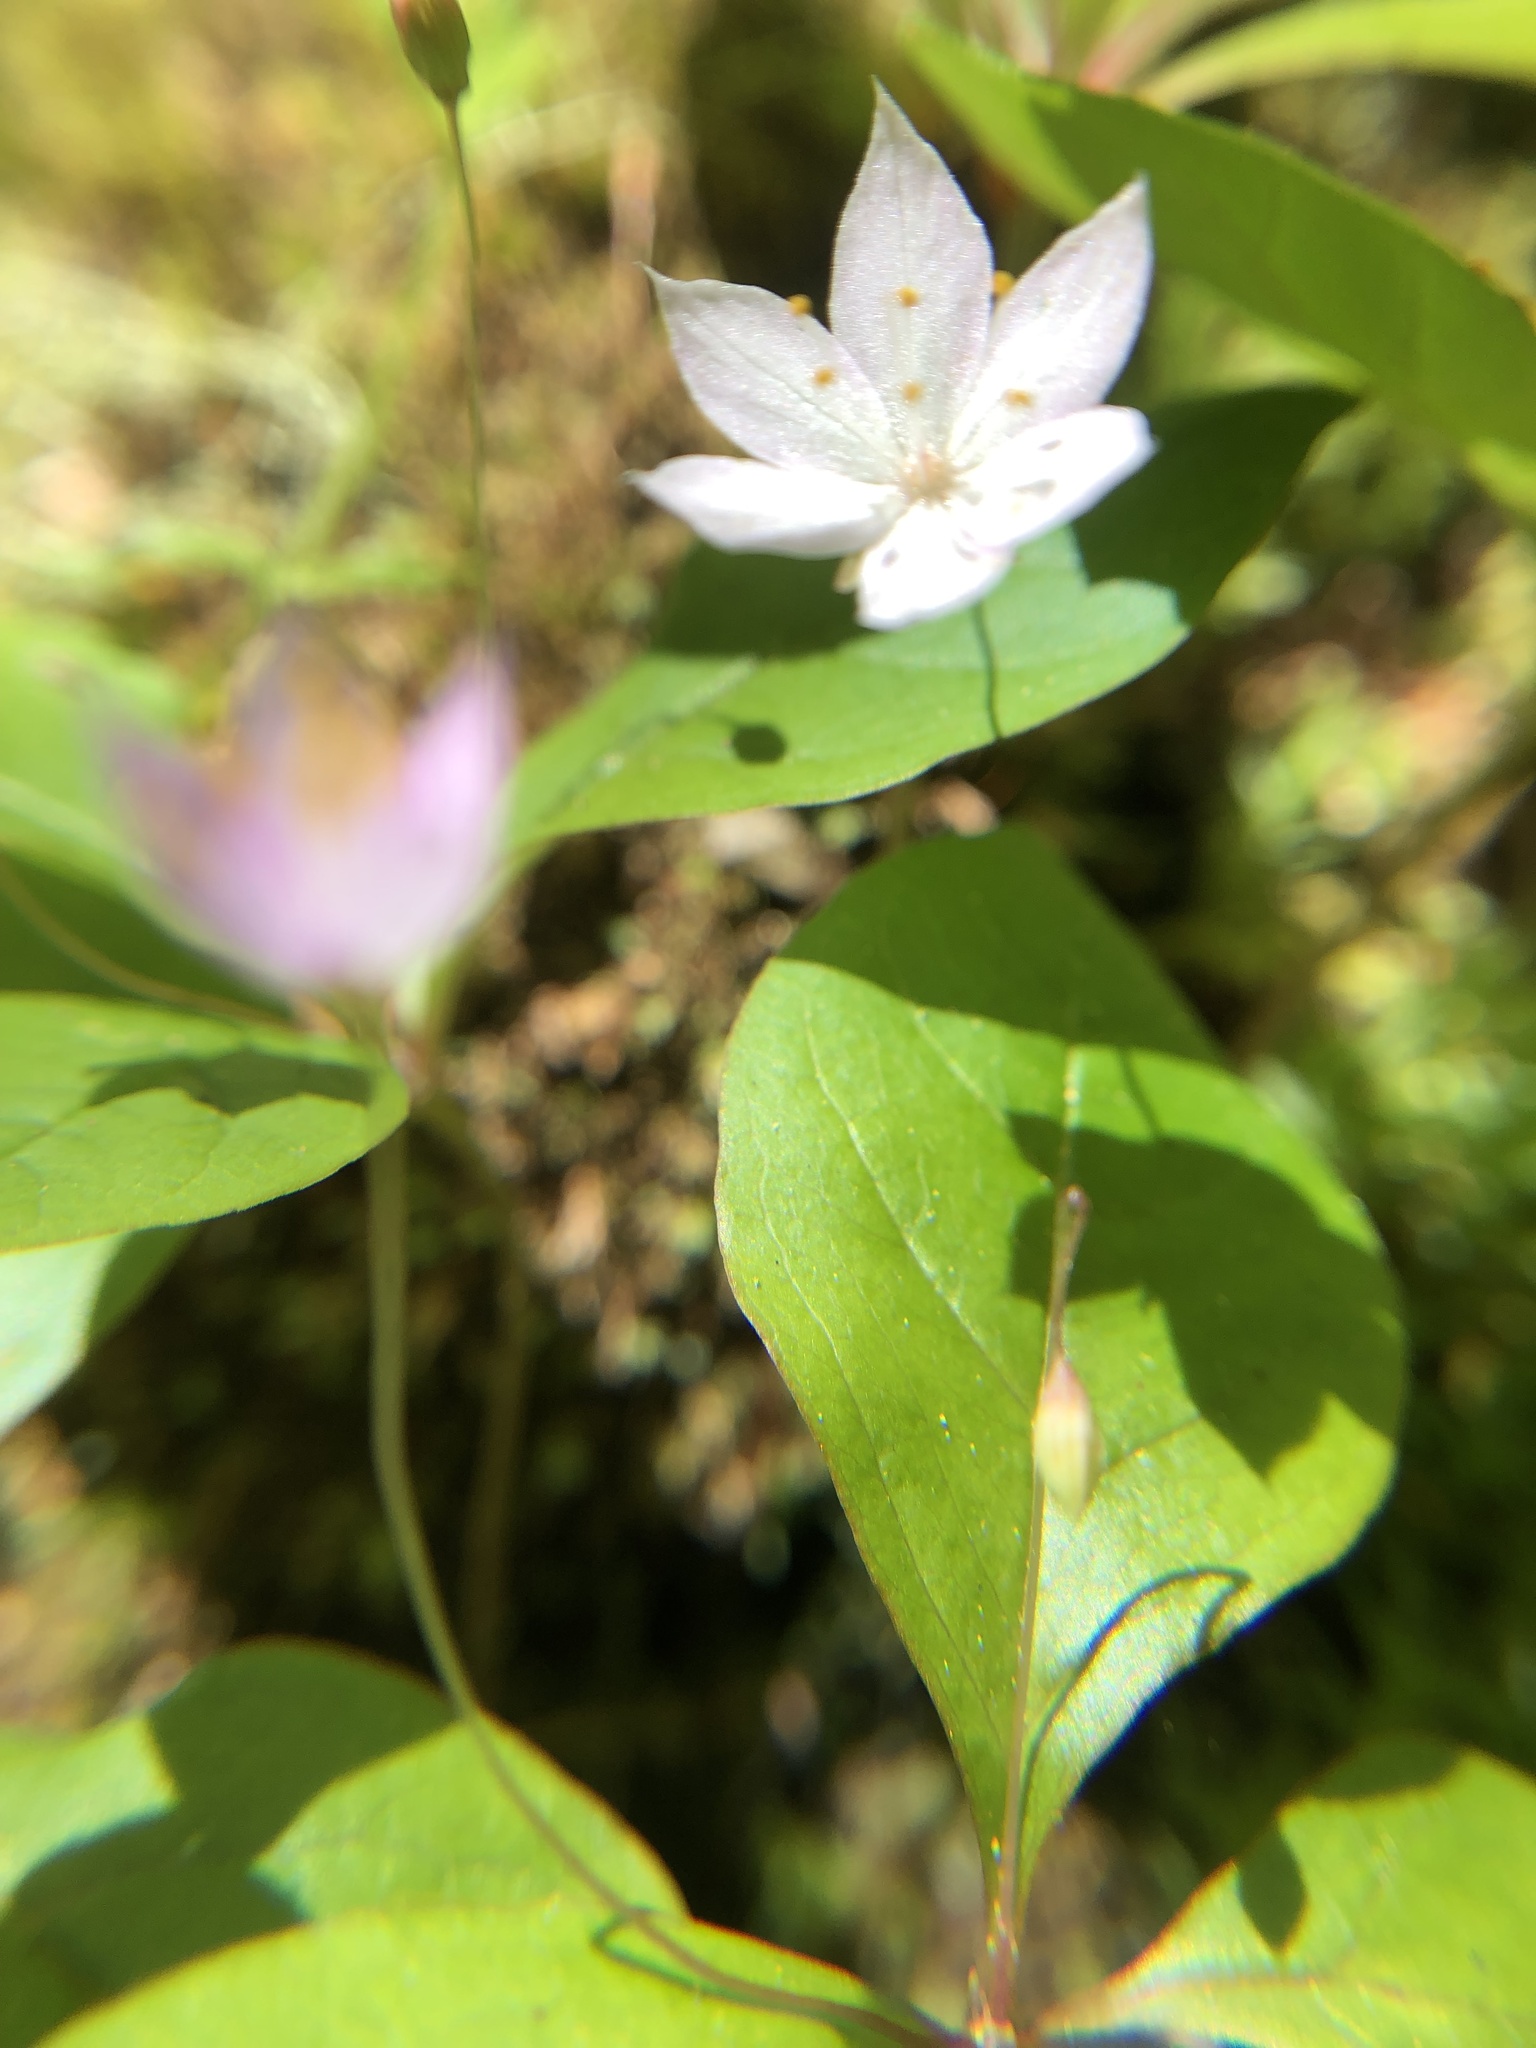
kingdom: Plantae
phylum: Tracheophyta
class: Magnoliopsida
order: Ericales
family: Primulaceae
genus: Lysimachia
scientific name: Lysimachia latifolia
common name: Pacific starflower
